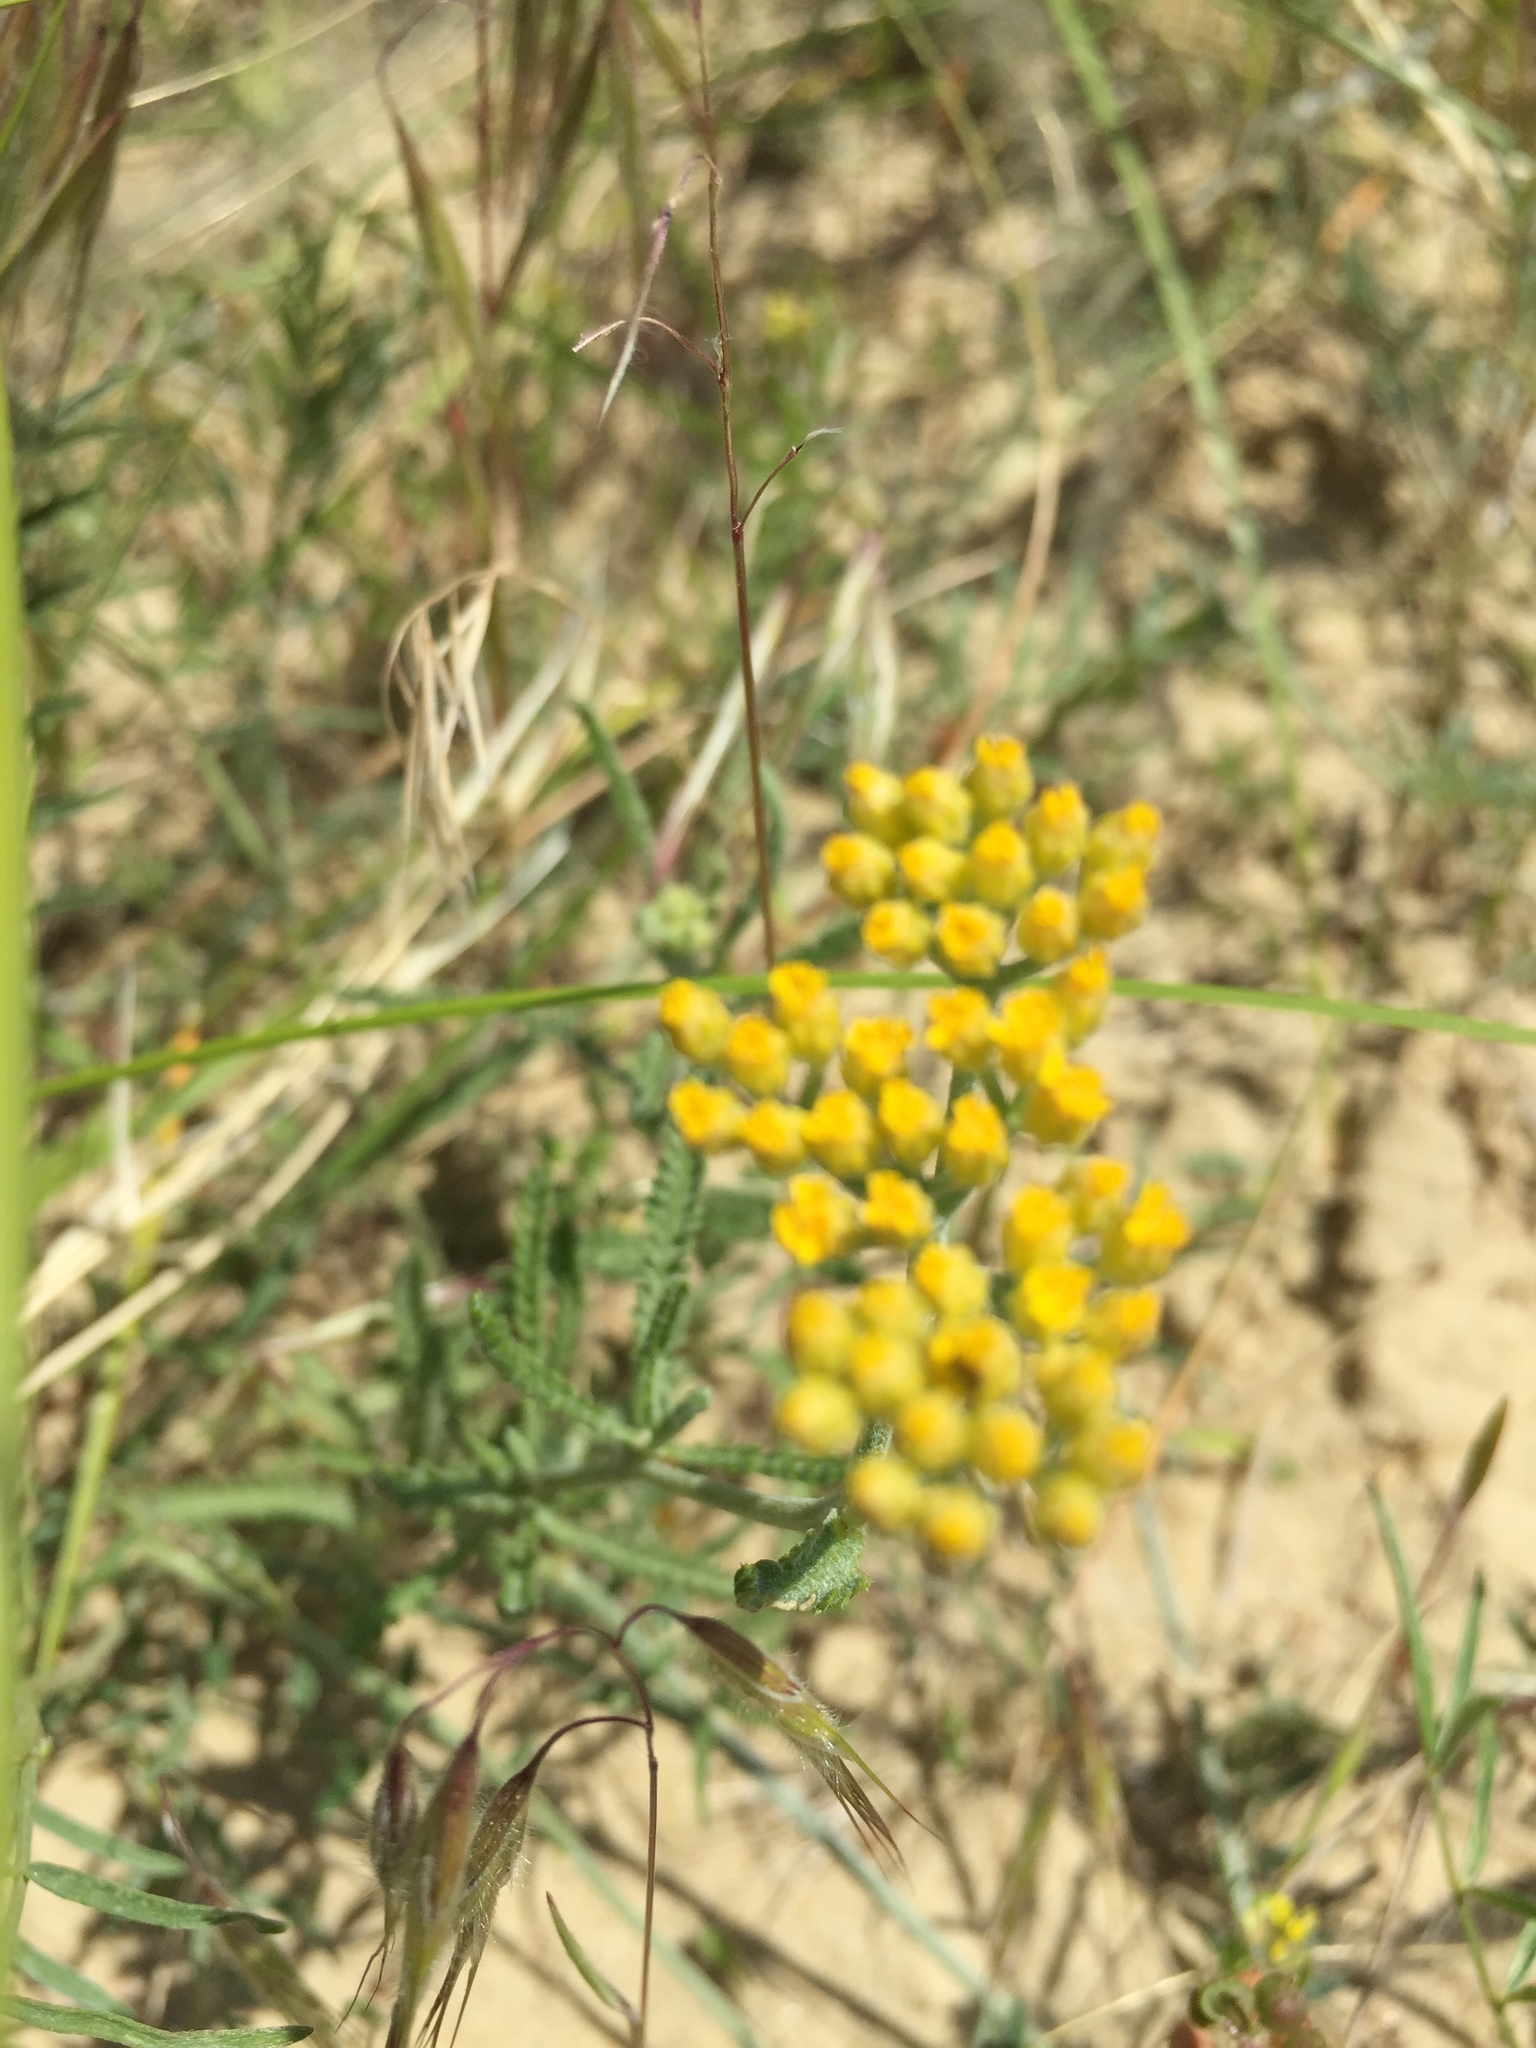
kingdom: Plantae
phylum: Tracheophyta
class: Magnoliopsida
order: Asterales
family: Asteraceae
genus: Achillea
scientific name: Achillea micrantha
